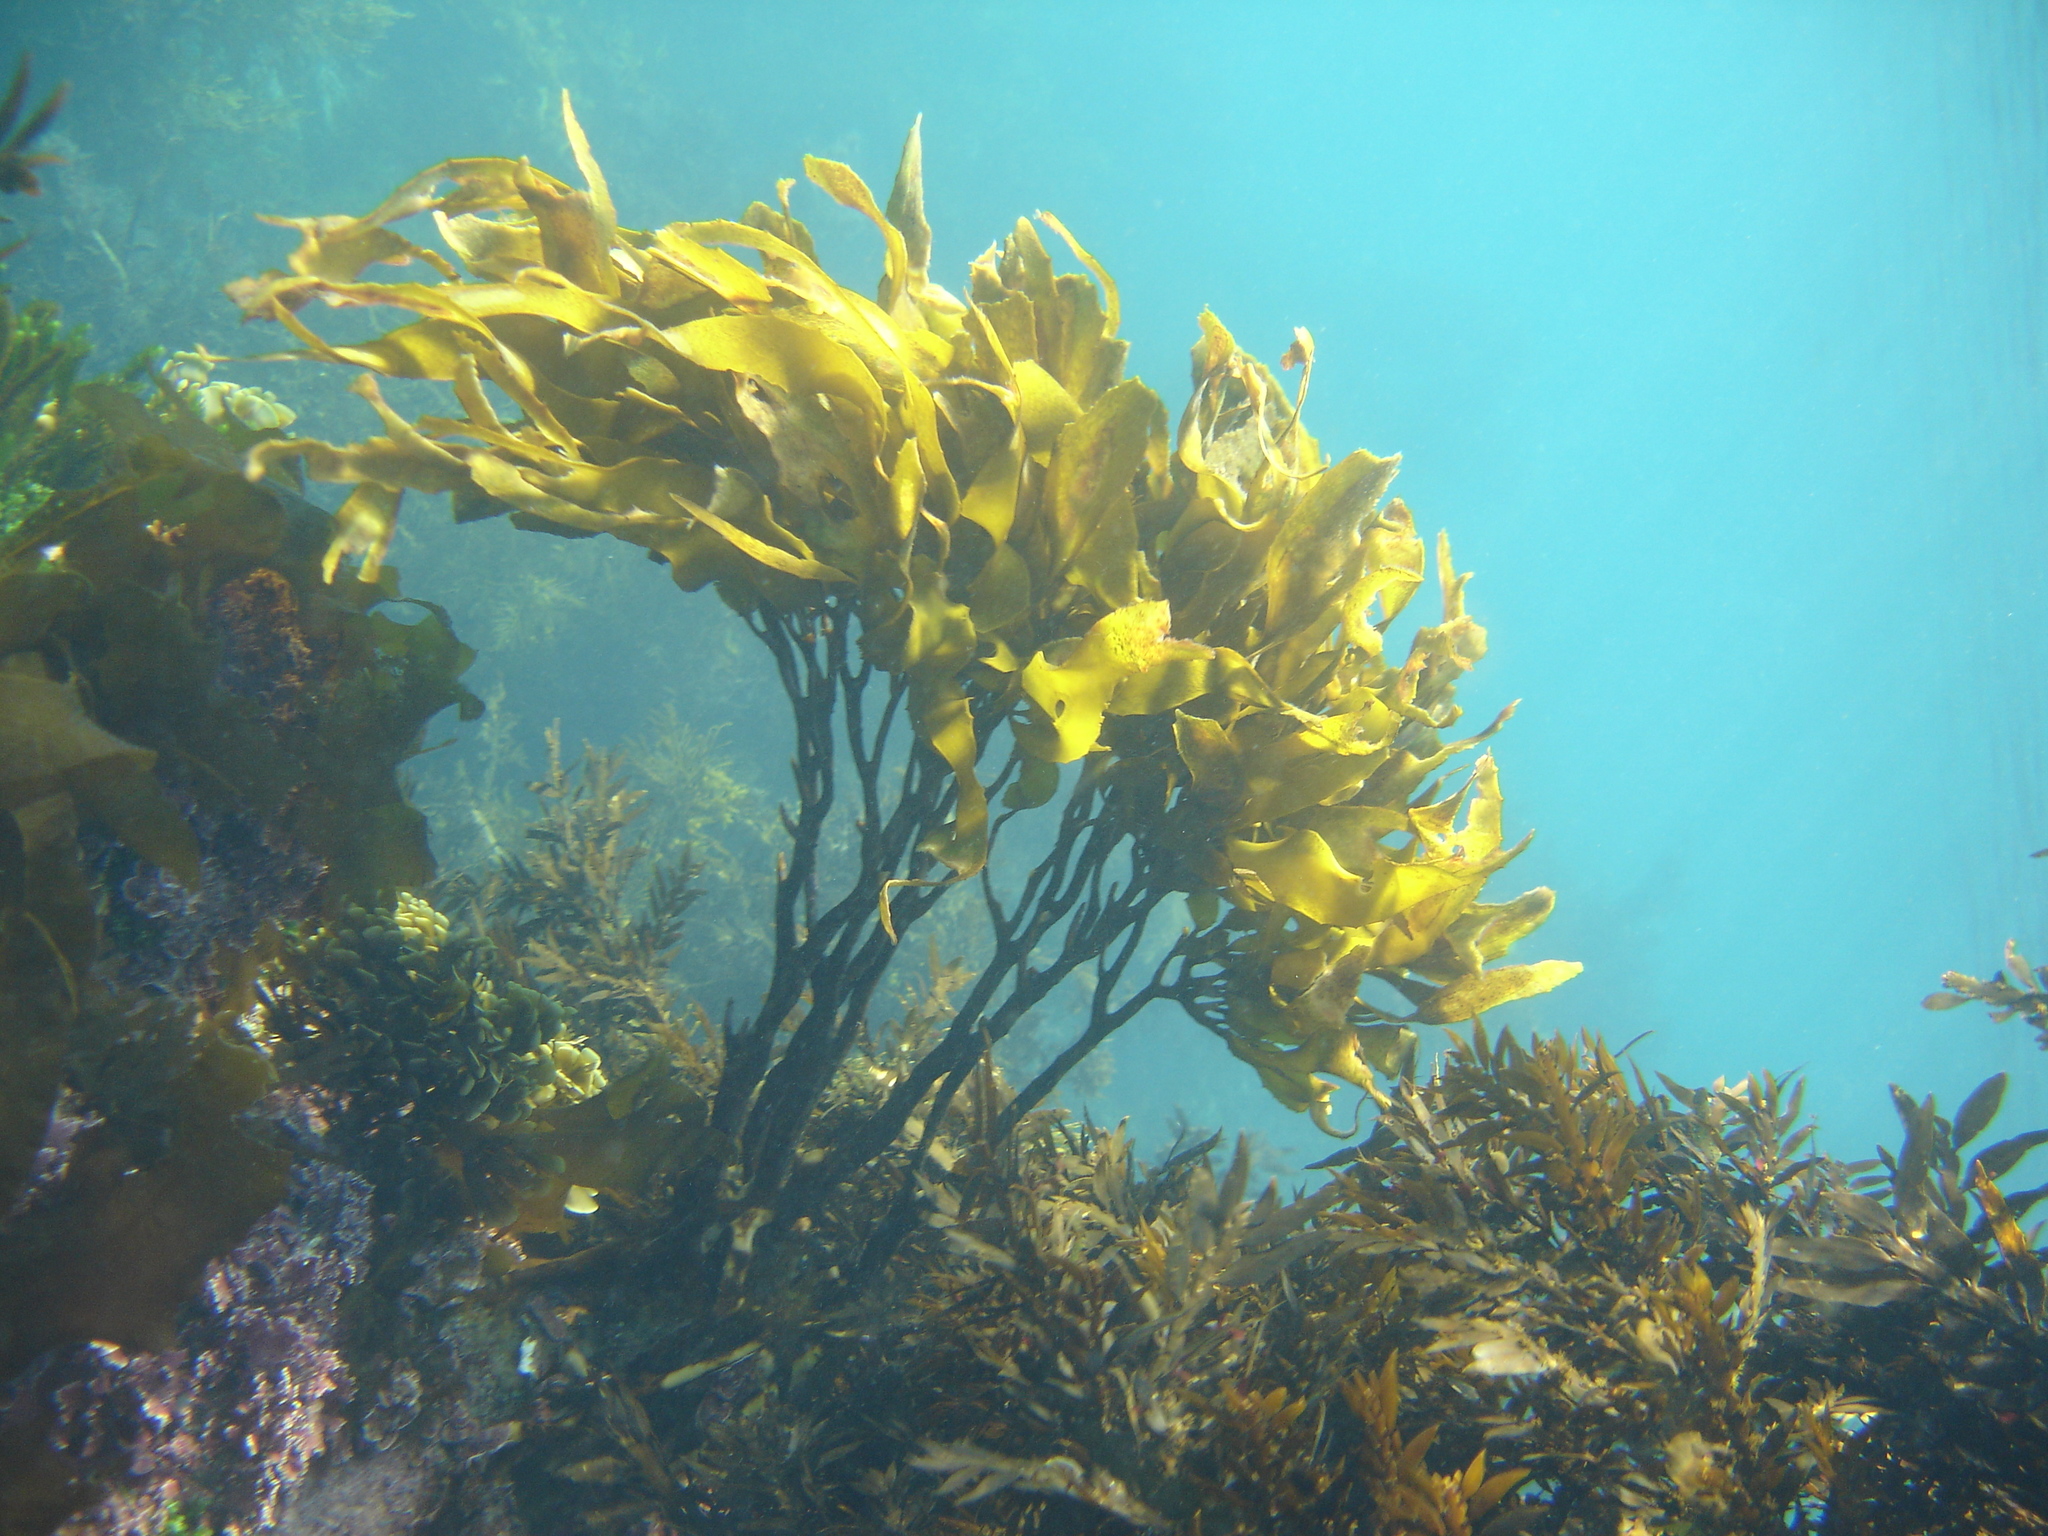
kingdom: Chromista
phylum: Ochrophyta
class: Phaeophyceae
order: Laminariales
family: Lessoniaceae
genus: Lessonia
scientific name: Lessonia variegata
